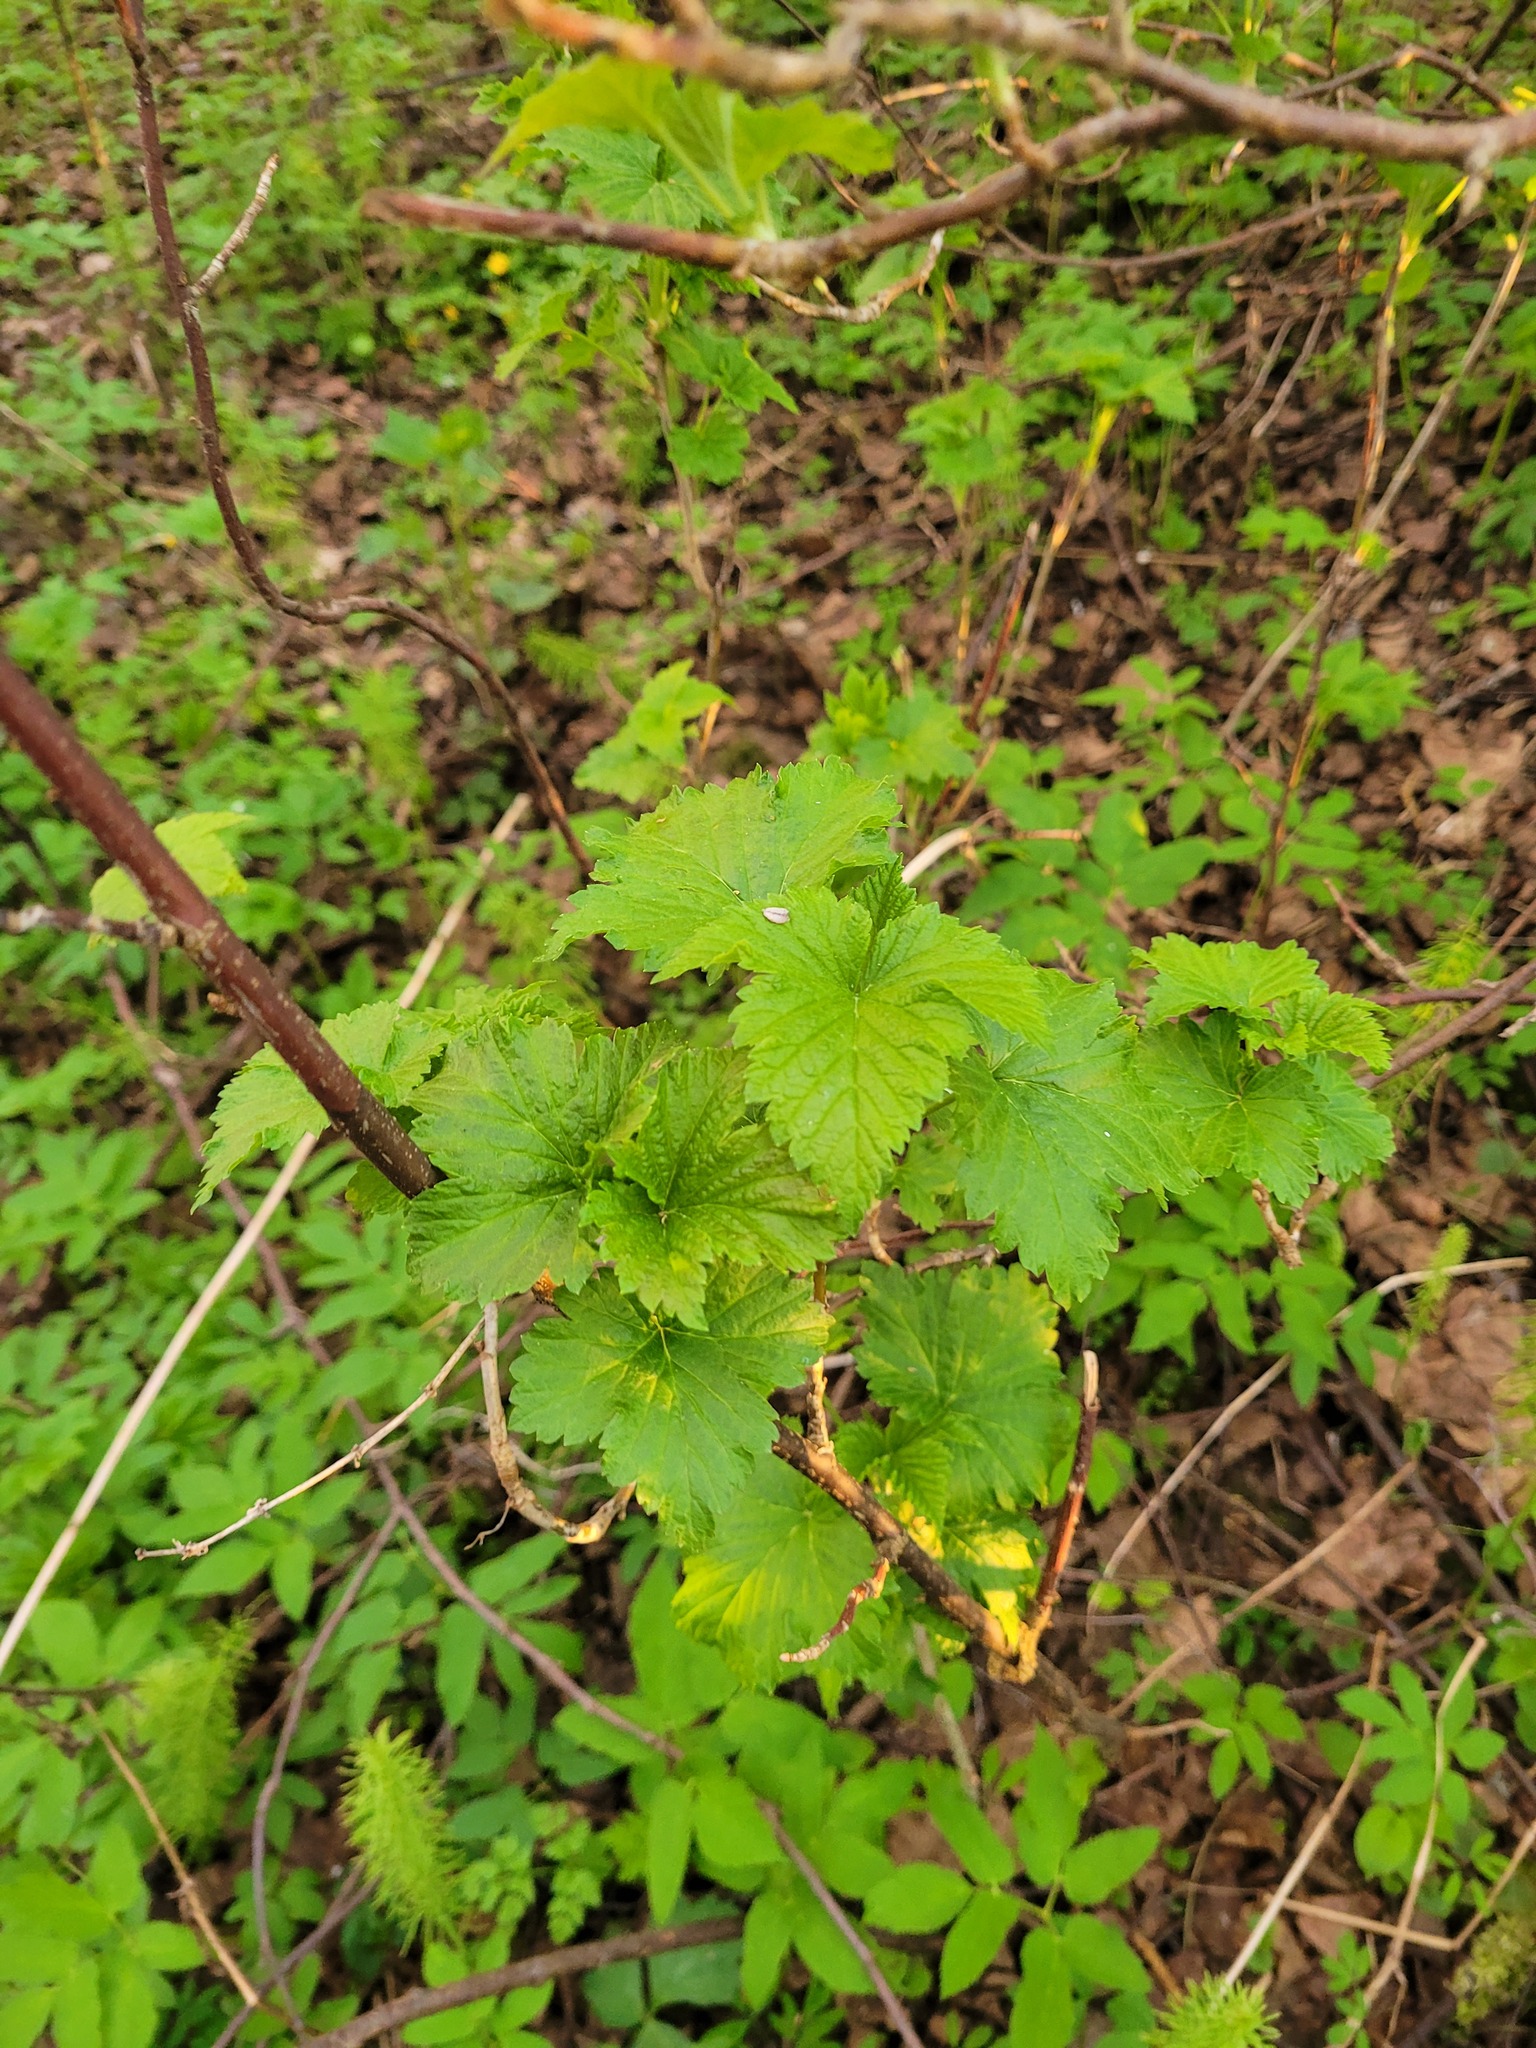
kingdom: Plantae
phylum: Tracheophyta
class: Magnoliopsida
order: Saxifragales
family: Grossulariaceae
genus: Ribes
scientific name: Ribes nigrum
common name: Black currant
